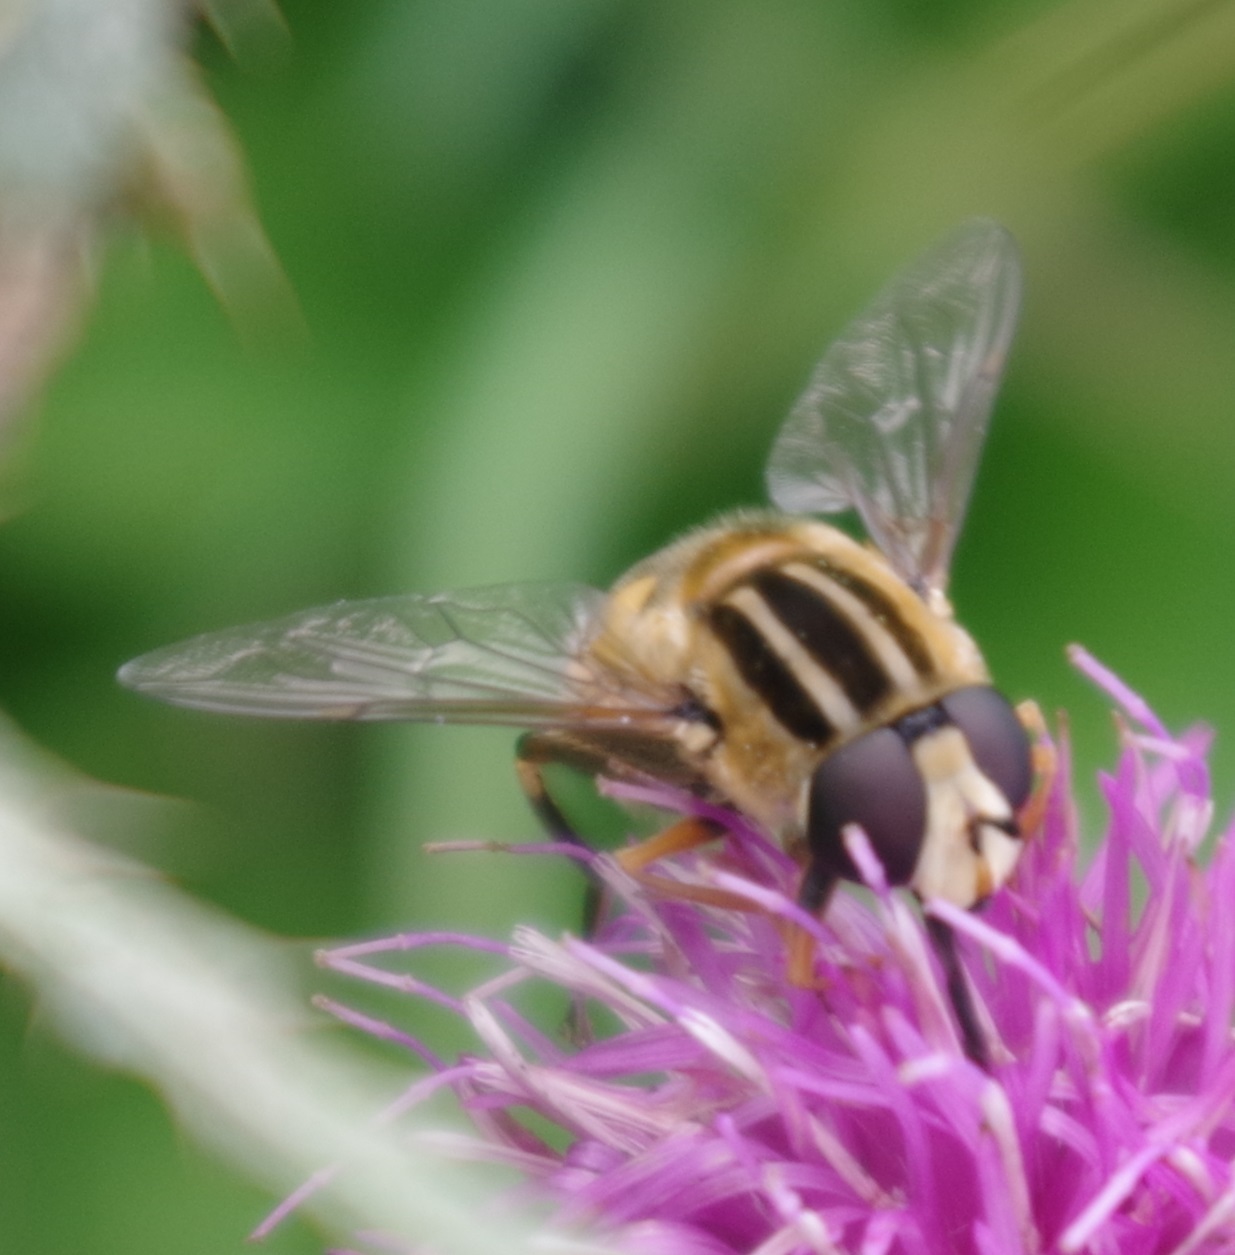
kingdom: Animalia
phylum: Arthropoda
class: Insecta
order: Diptera
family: Syrphidae
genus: Helophilus
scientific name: Helophilus trivittatus
